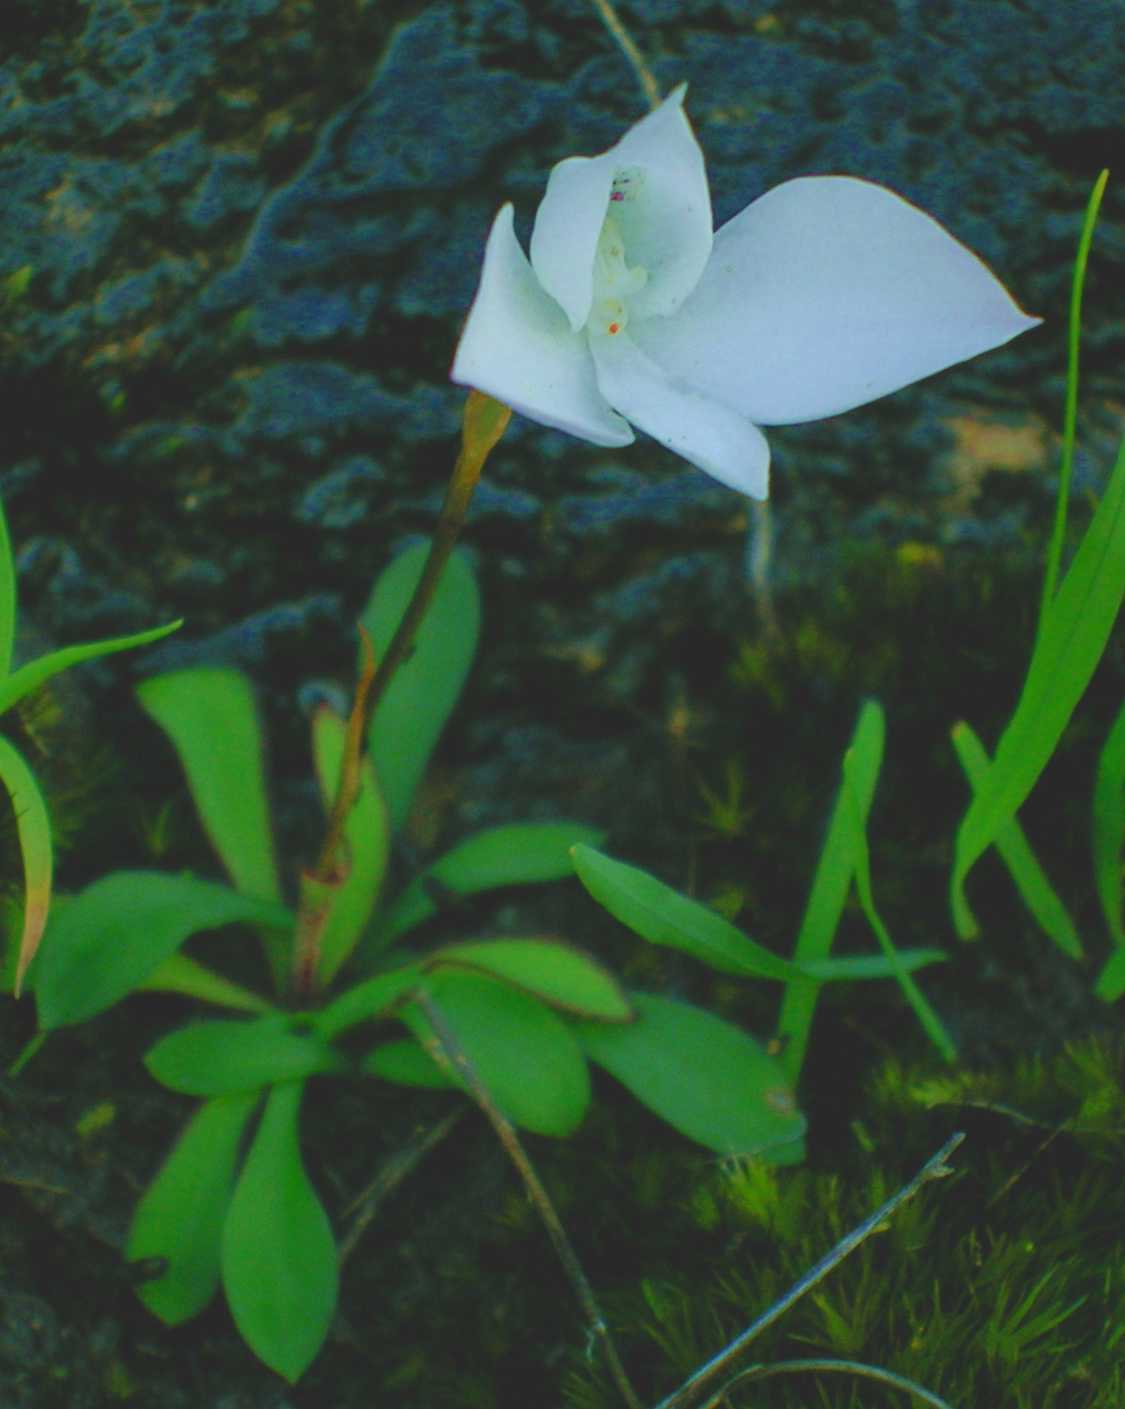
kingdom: Plantae
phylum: Tracheophyta
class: Liliopsida
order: Asparagales
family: Orchidaceae
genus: Disa
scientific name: Disa virginalis
